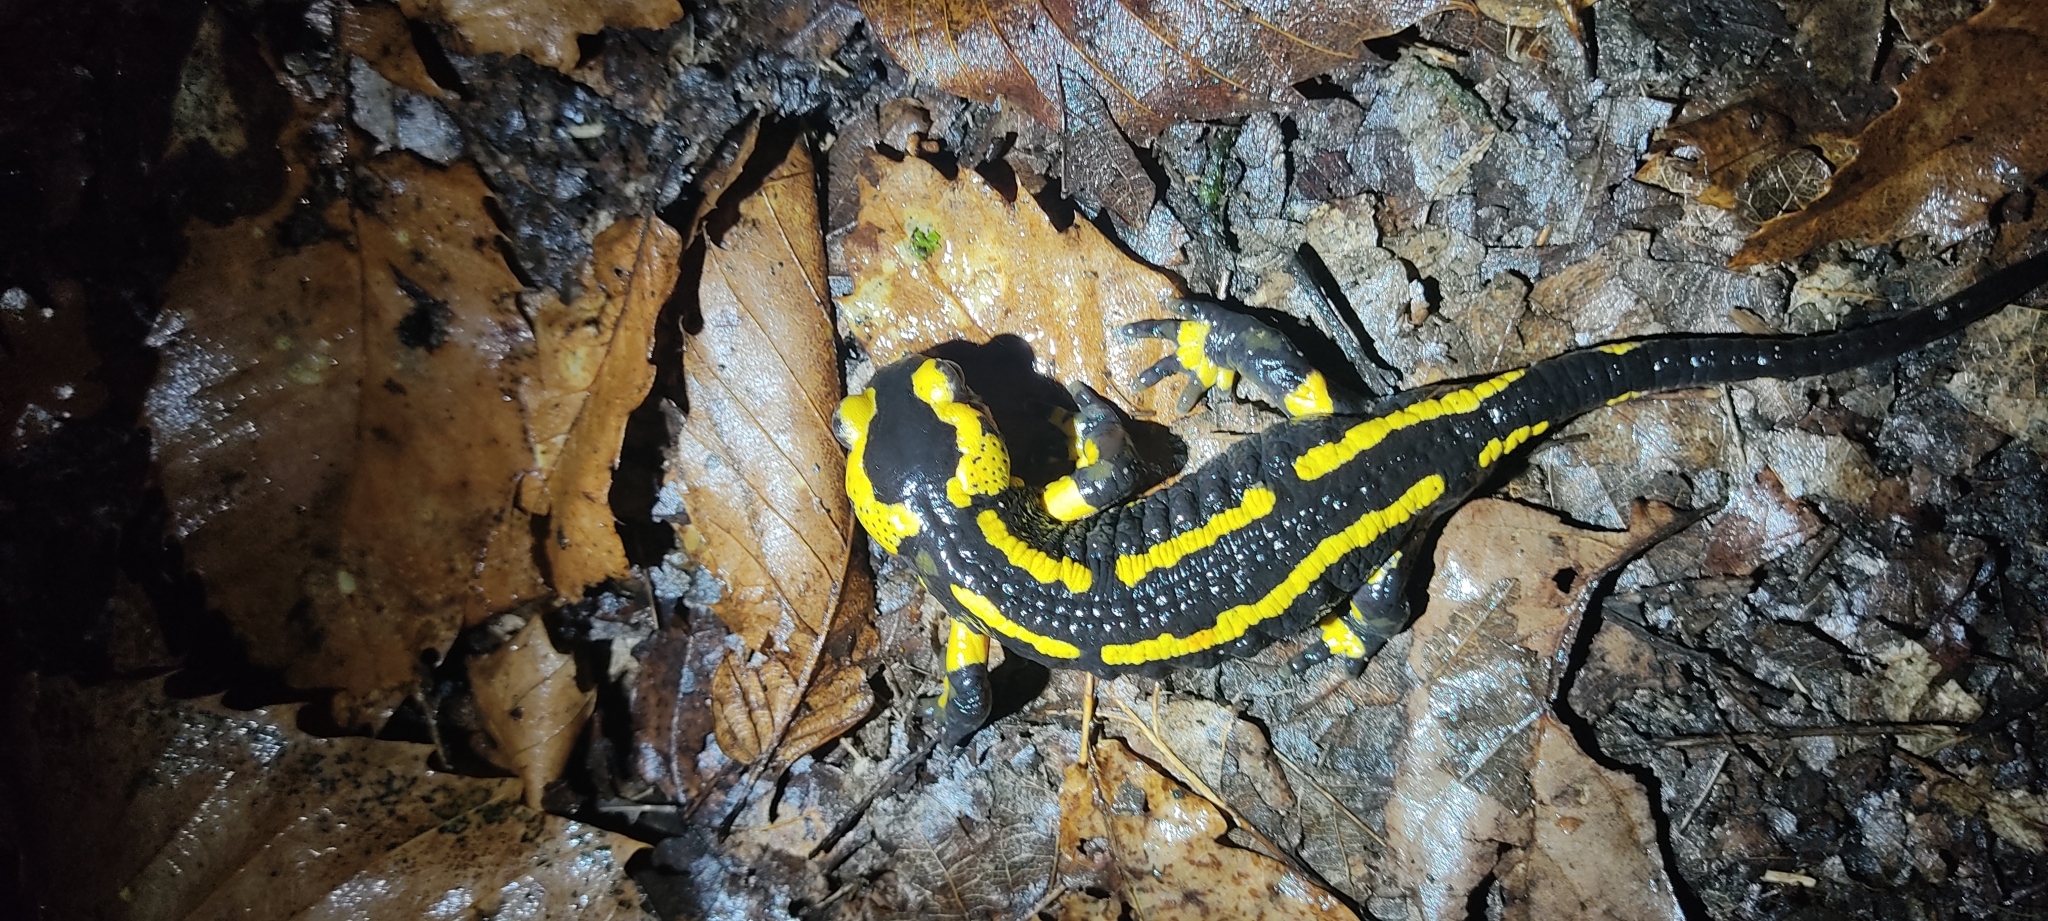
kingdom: Animalia
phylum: Chordata
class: Amphibia
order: Caudata
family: Salamandridae
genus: Salamandra
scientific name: Salamandra salamandra
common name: Fire salamander
